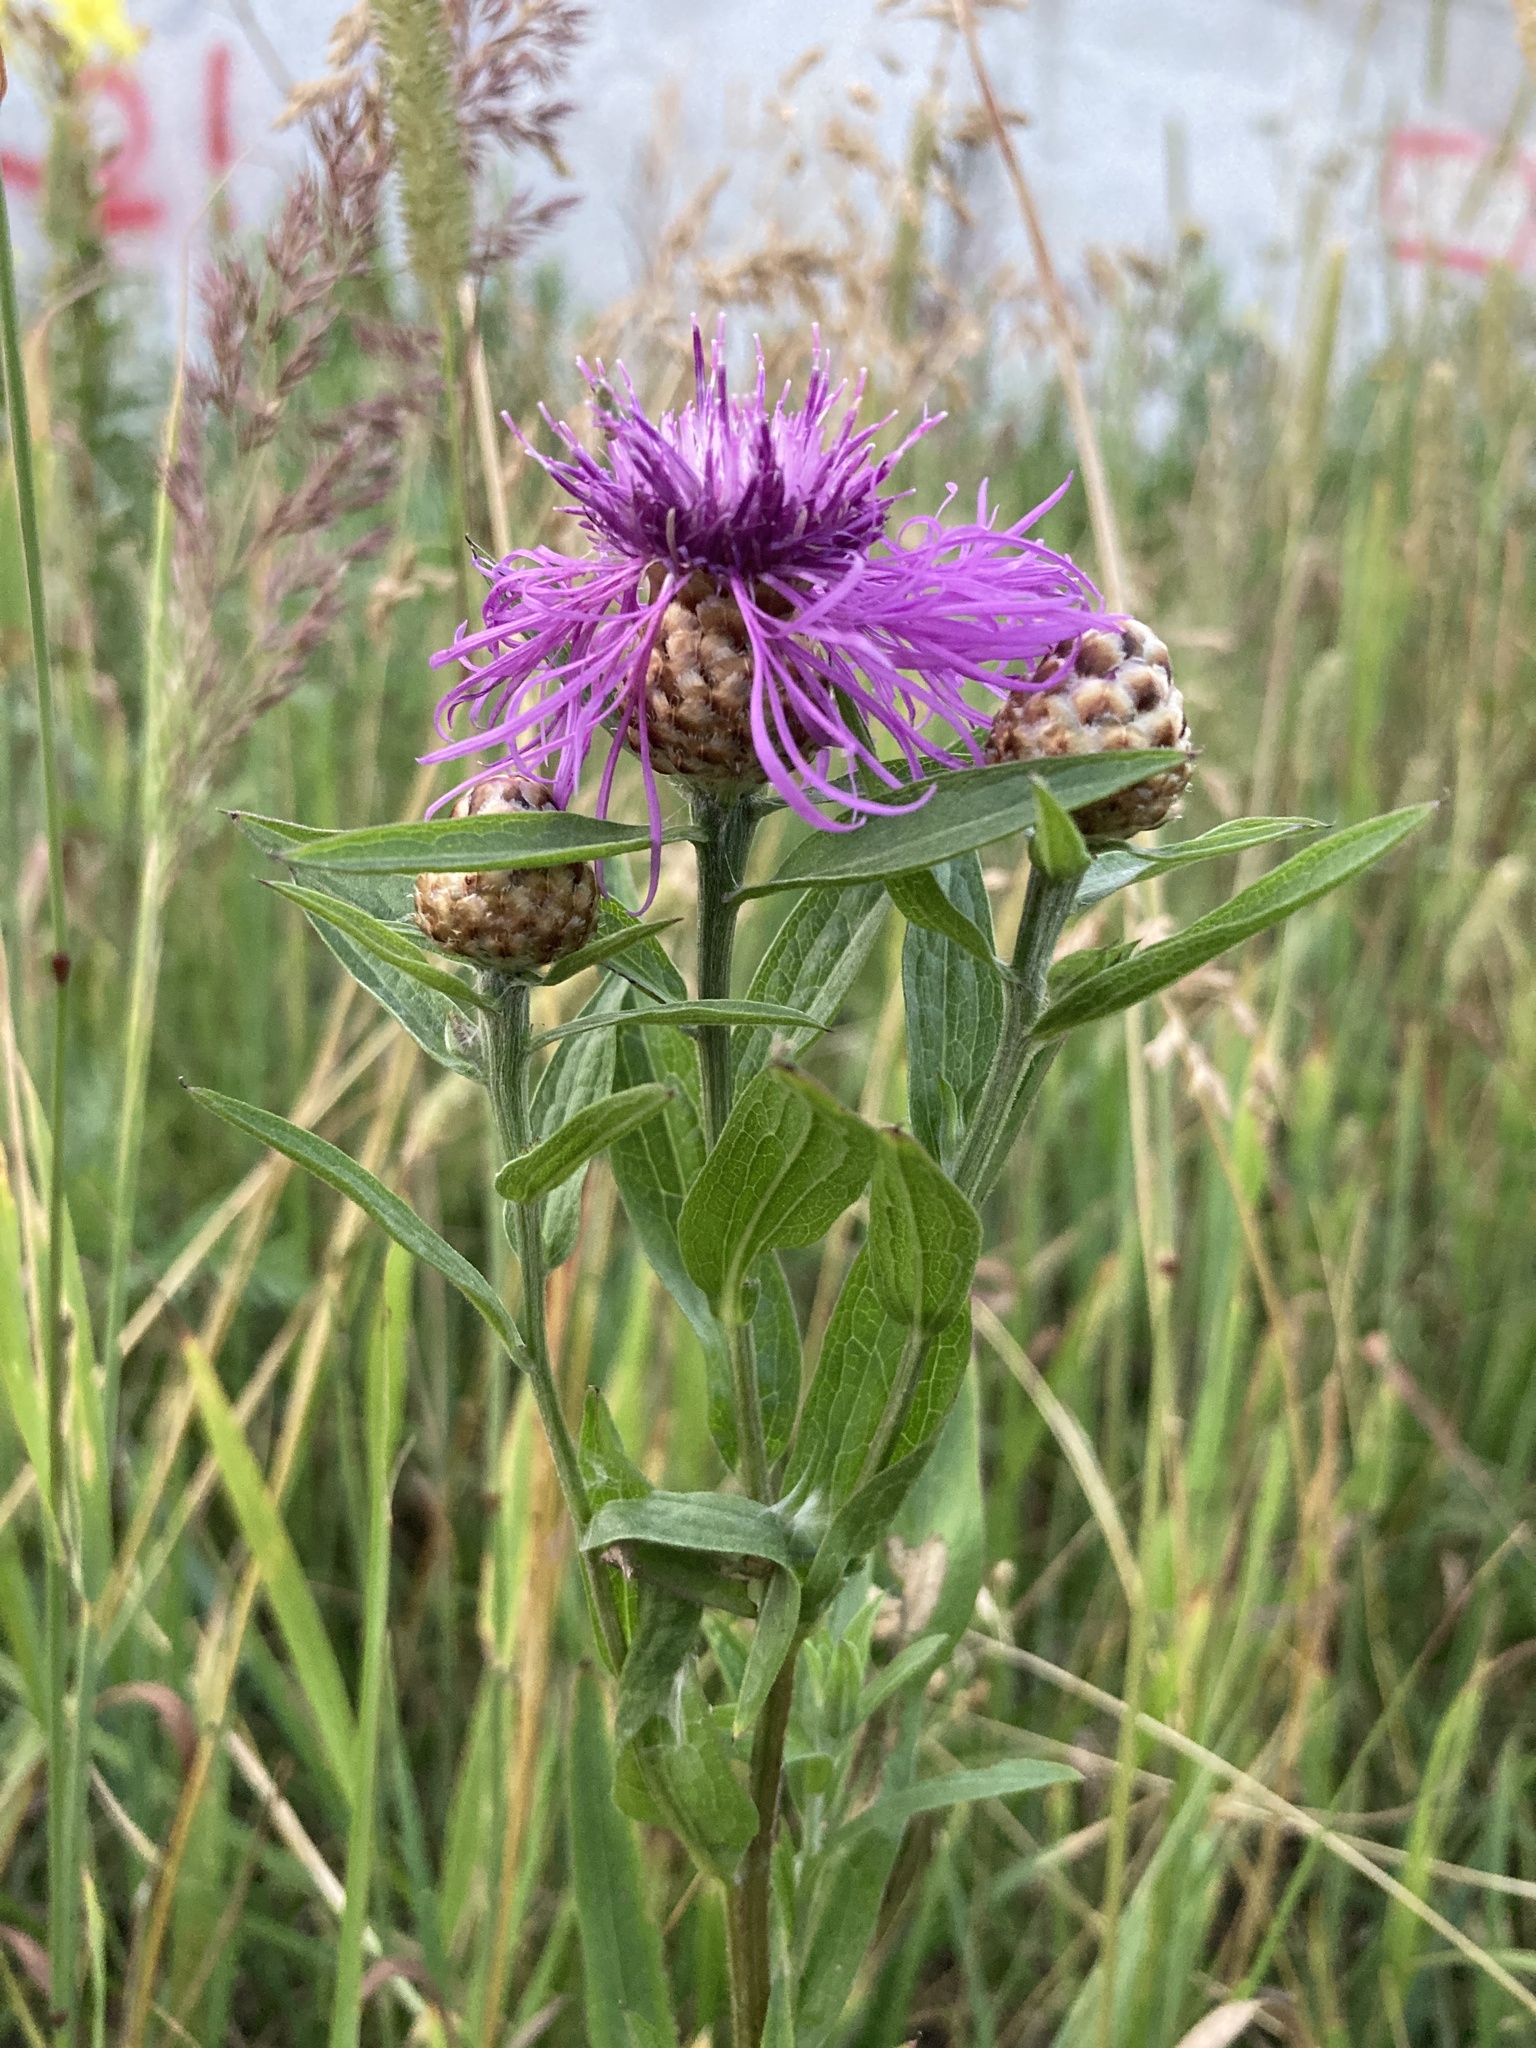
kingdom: Plantae
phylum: Tracheophyta
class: Magnoliopsida
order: Asterales
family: Asteraceae
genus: Centaurea
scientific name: Centaurea jacea
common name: Brown knapweed
